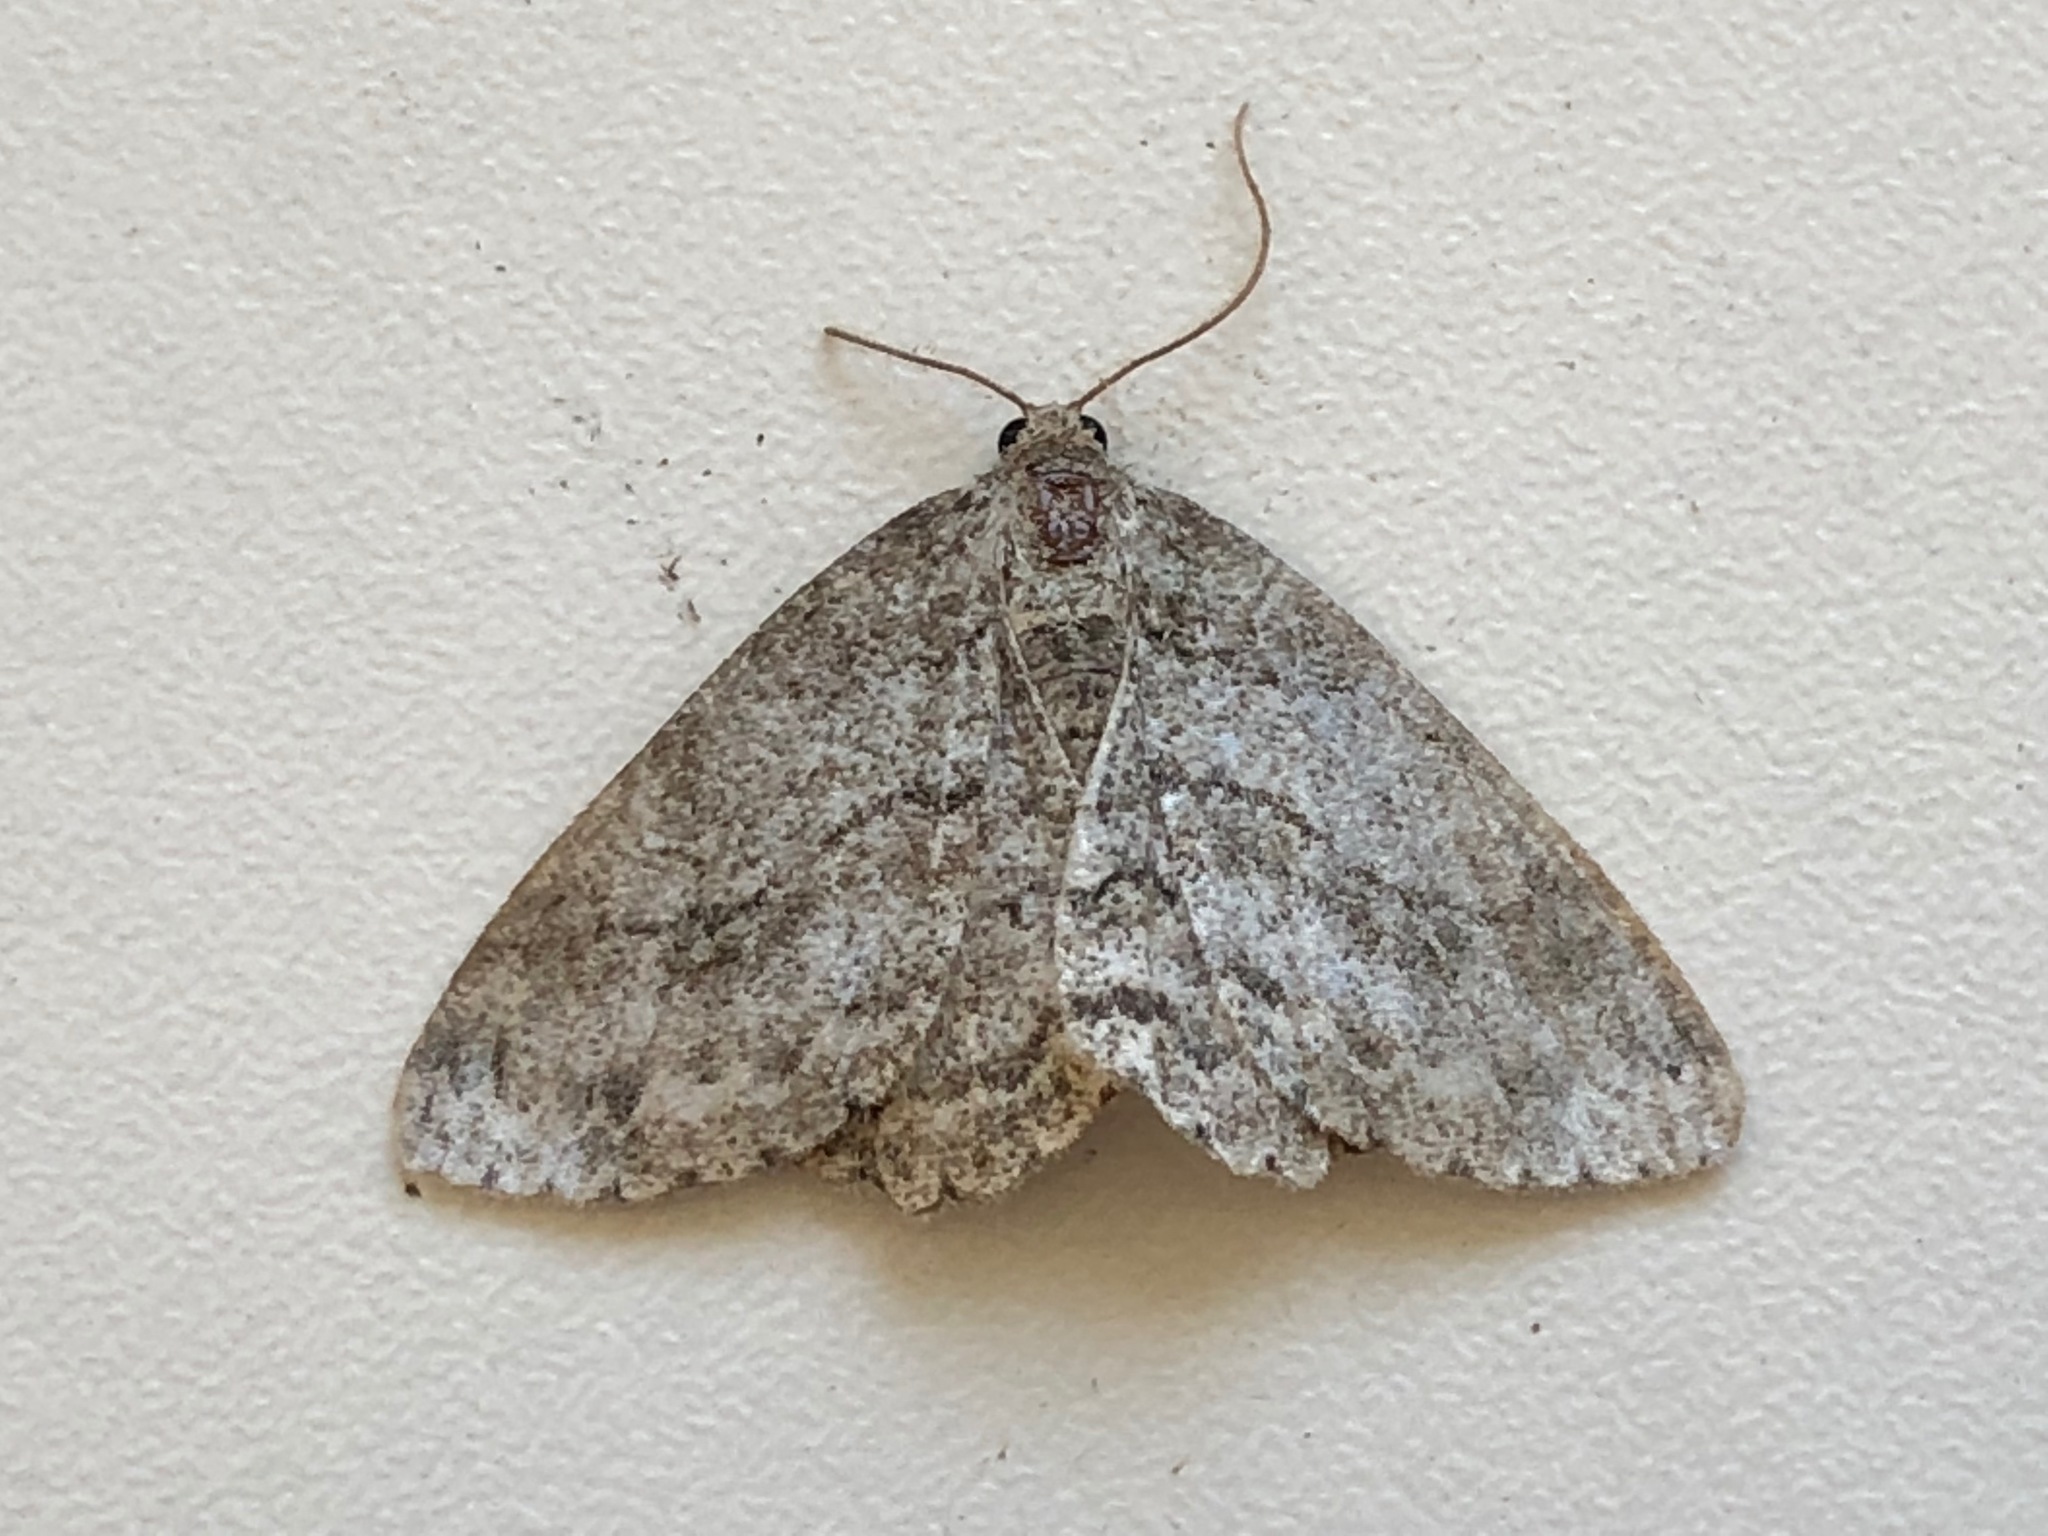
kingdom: Animalia
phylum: Arthropoda
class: Insecta
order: Lepidoptera
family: Geometridae
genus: Ectropis
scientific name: Ectropis crepuscularia
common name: Engrailed
